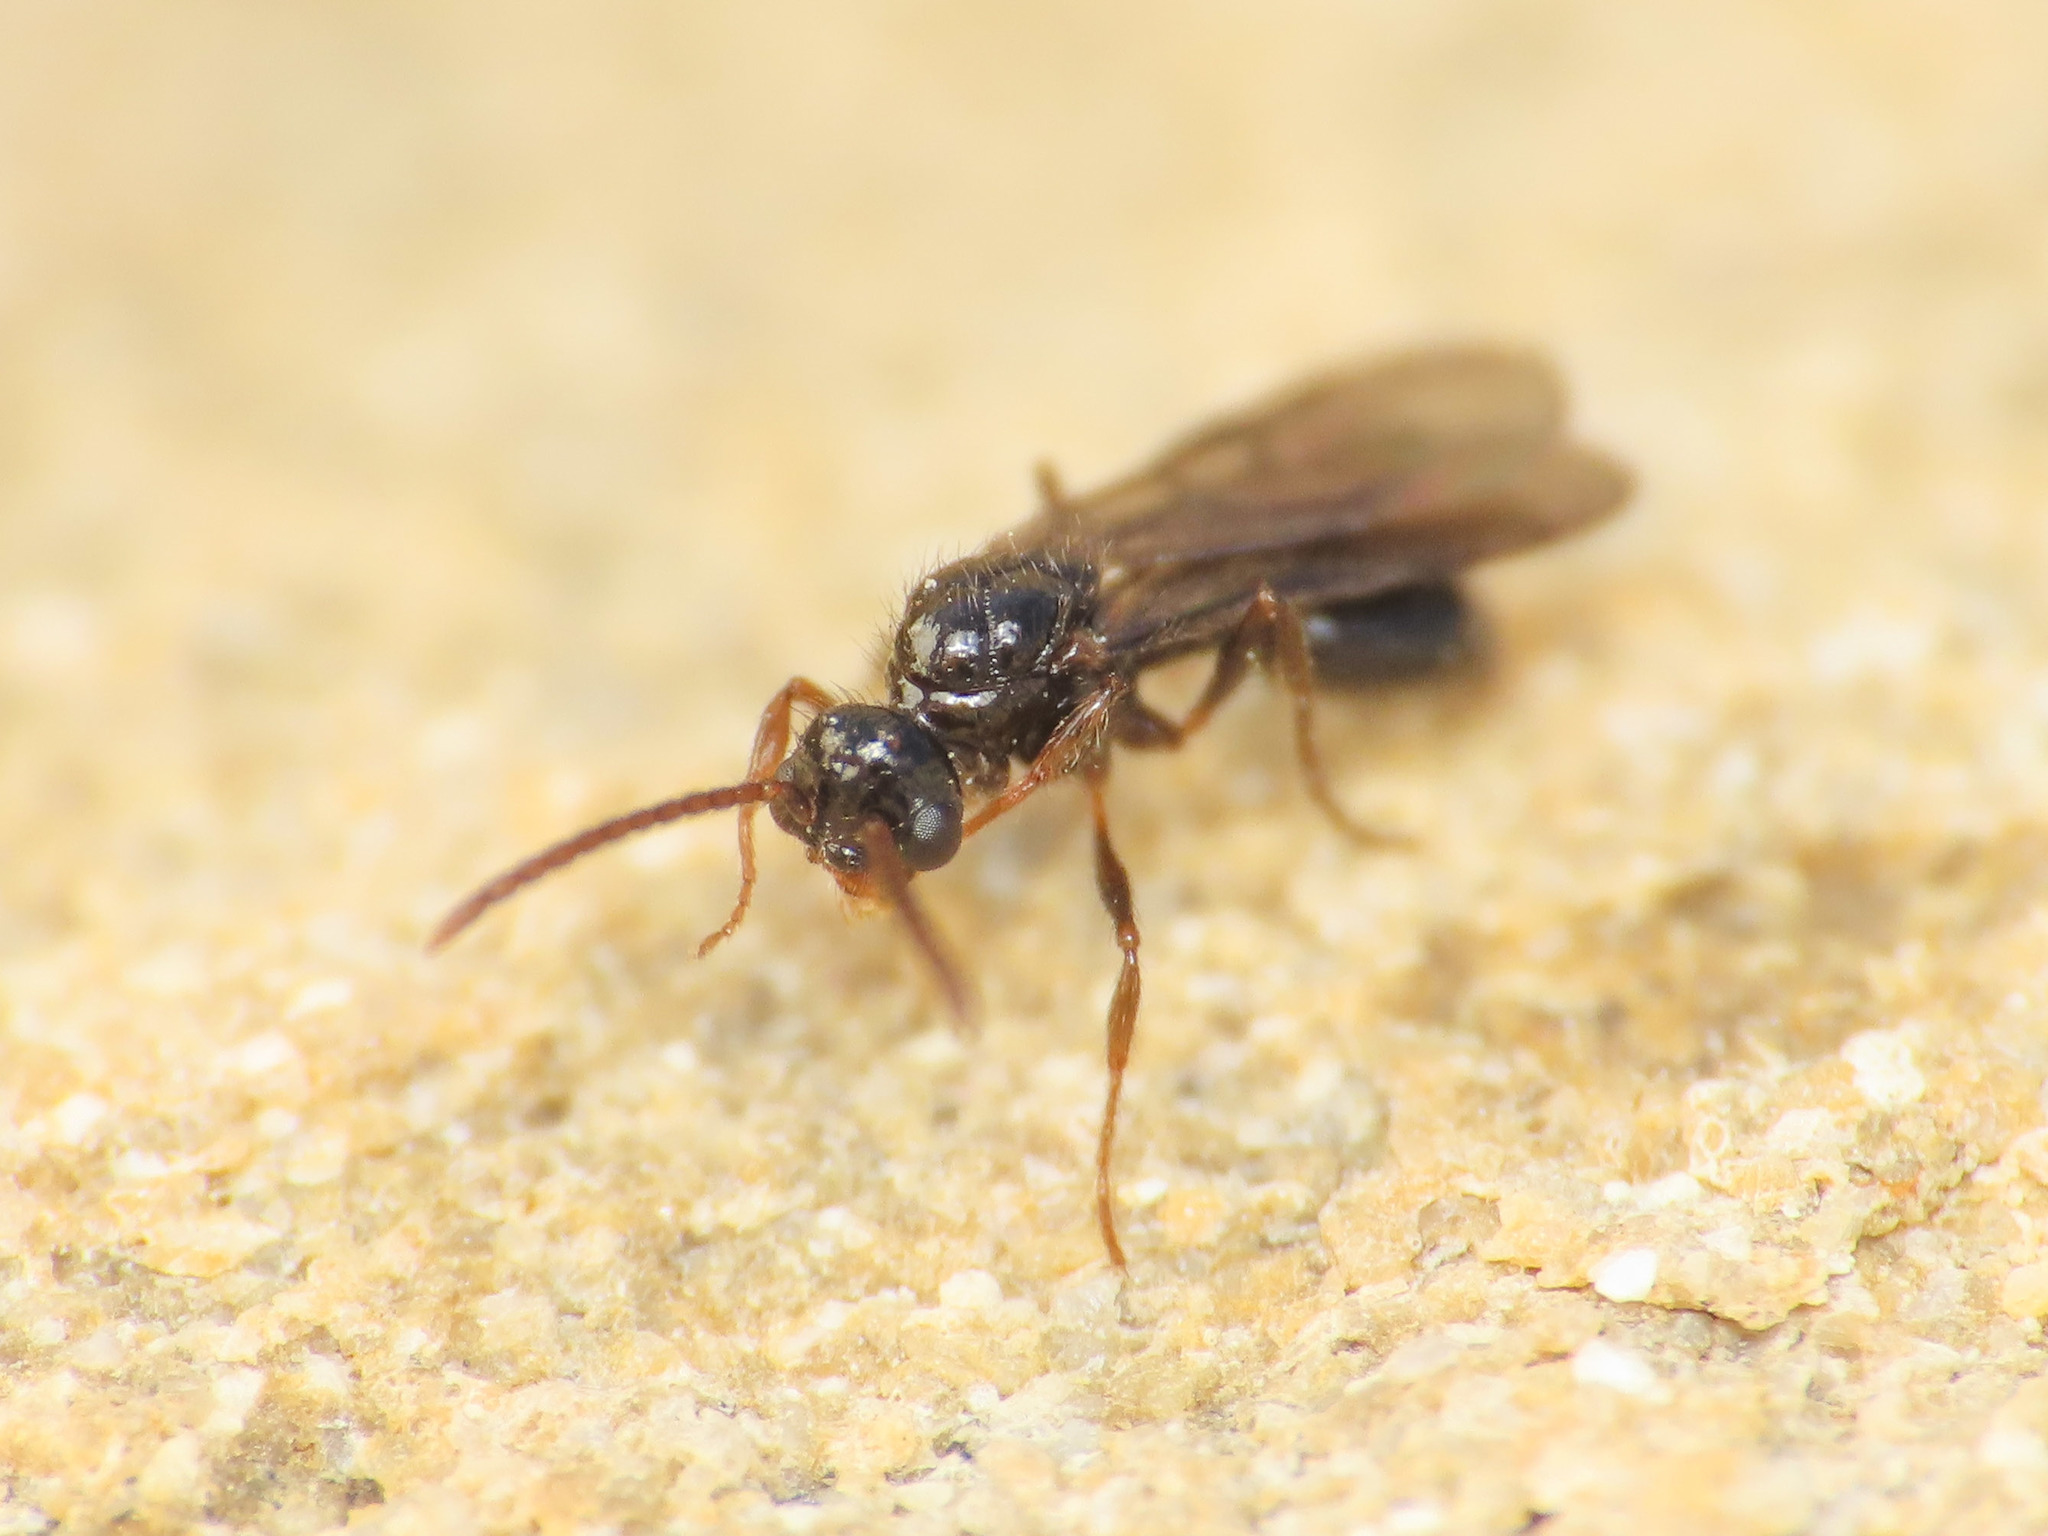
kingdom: Animalia
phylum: Arthropoda
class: Insecta
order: Hymenoptera
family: Formicidae
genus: Myrmecina
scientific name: Myrmecina graminicola
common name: Grass ant
